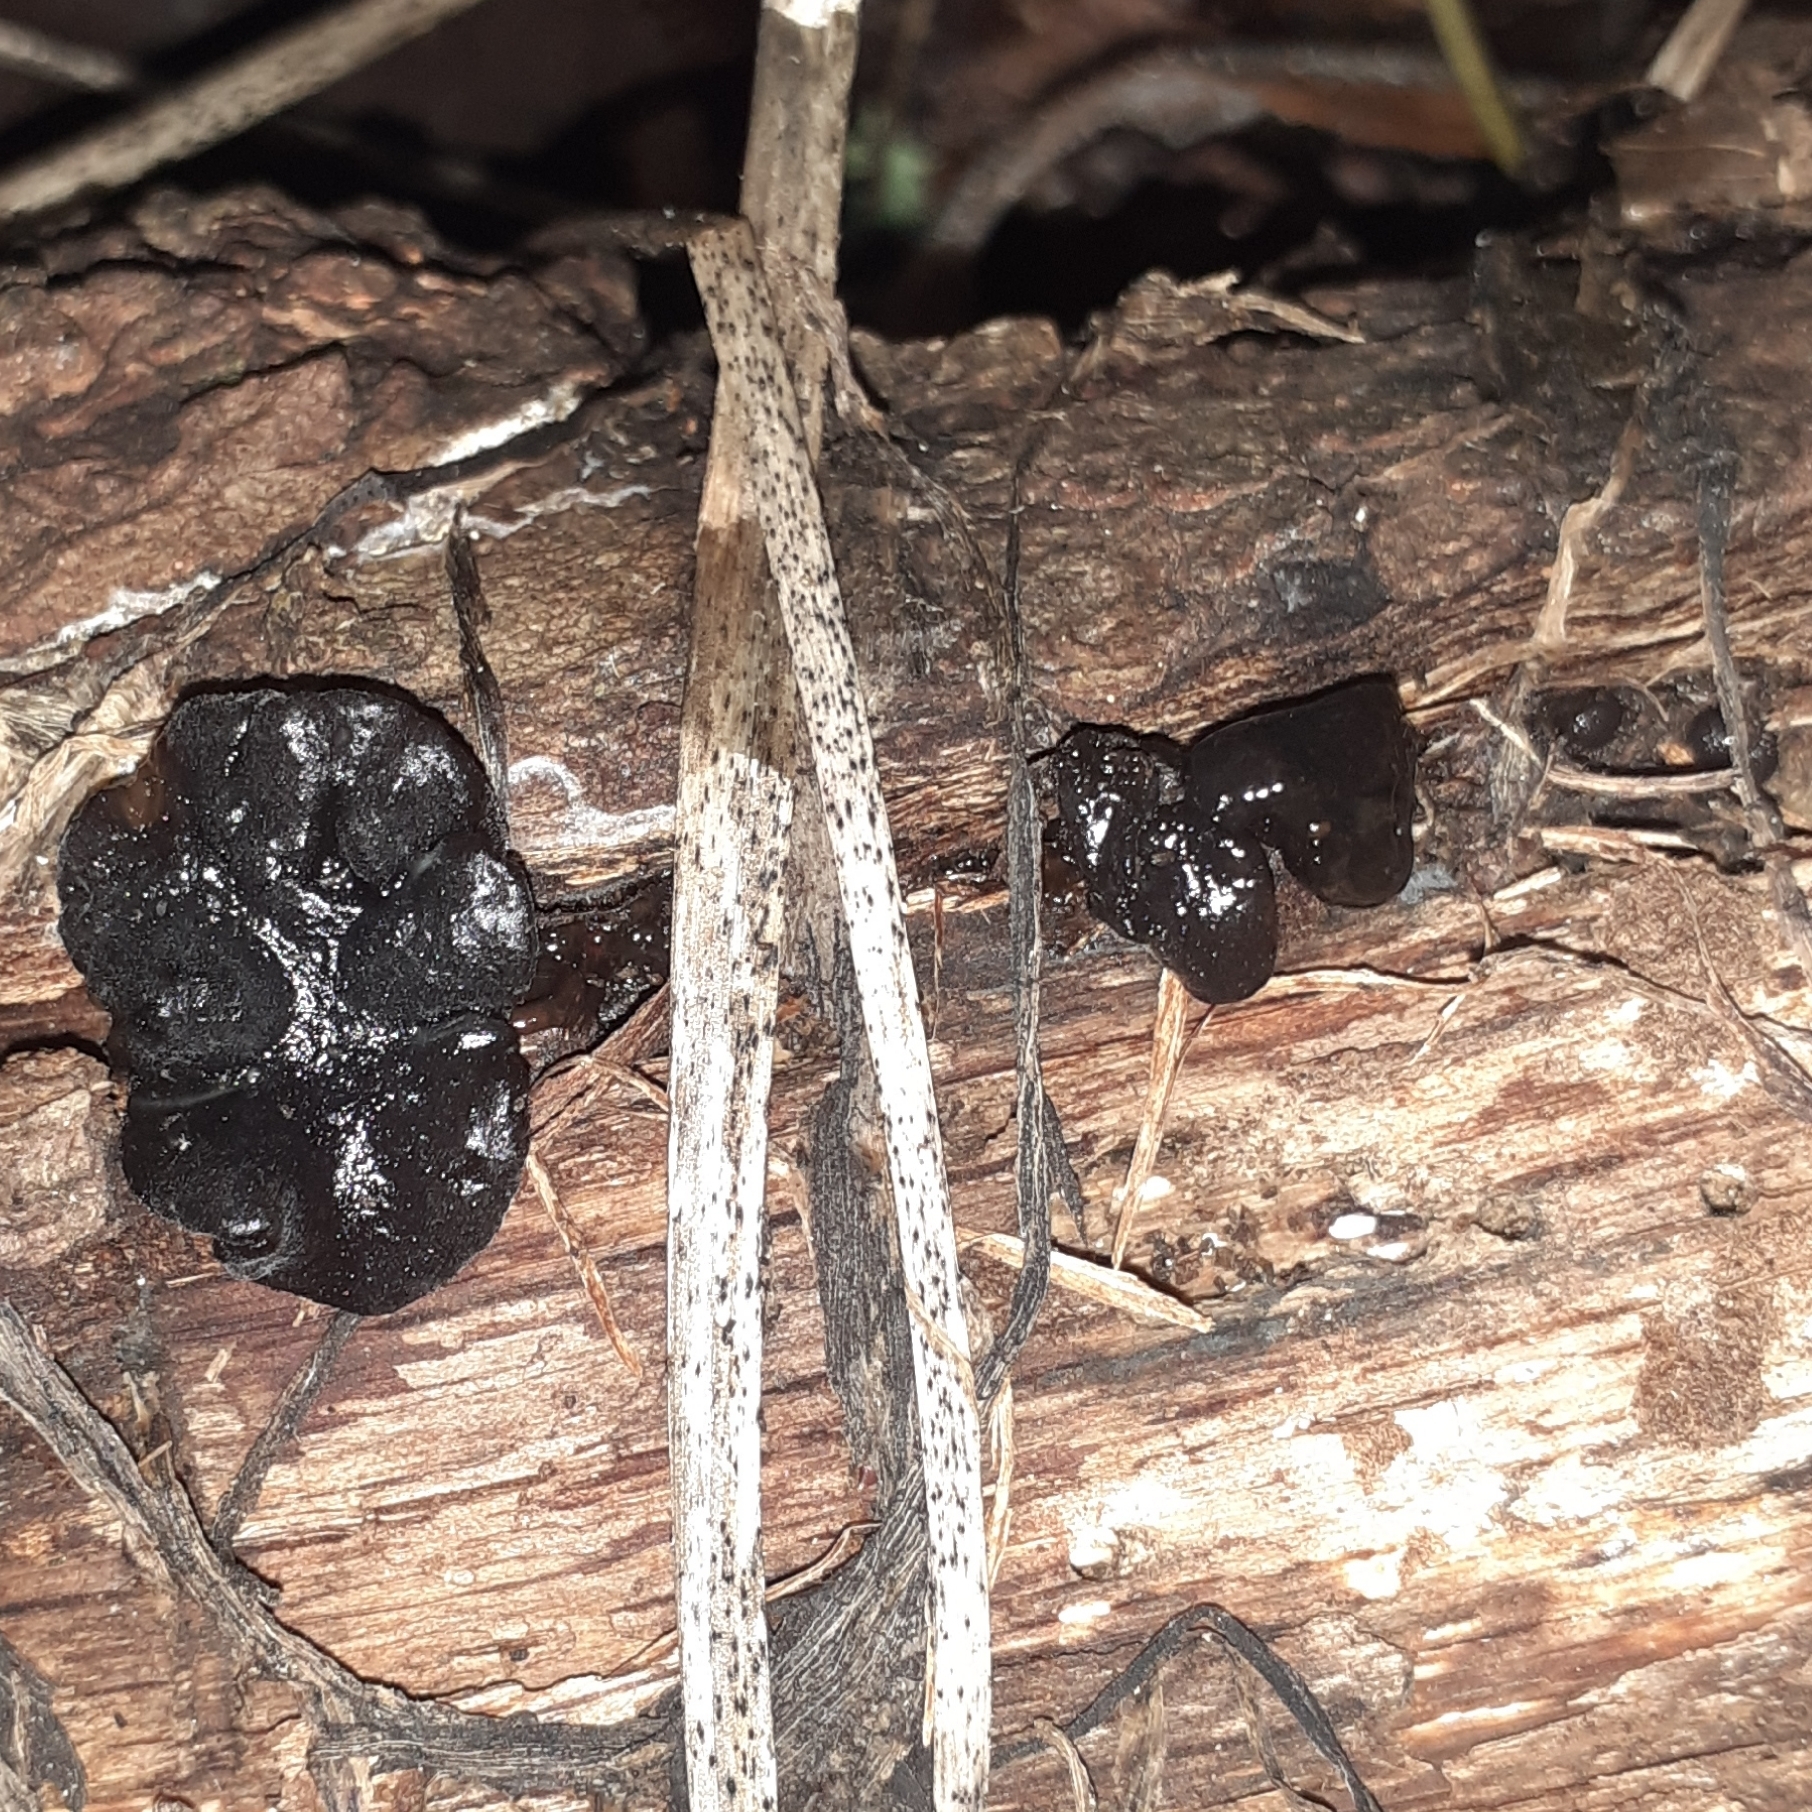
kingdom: Fungi
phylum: Basidiomycota
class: Agaricomycetes
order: Auriculariales
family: Auriculariaceae
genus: Exidia
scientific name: Exidia glandulosa
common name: Witches' butter
